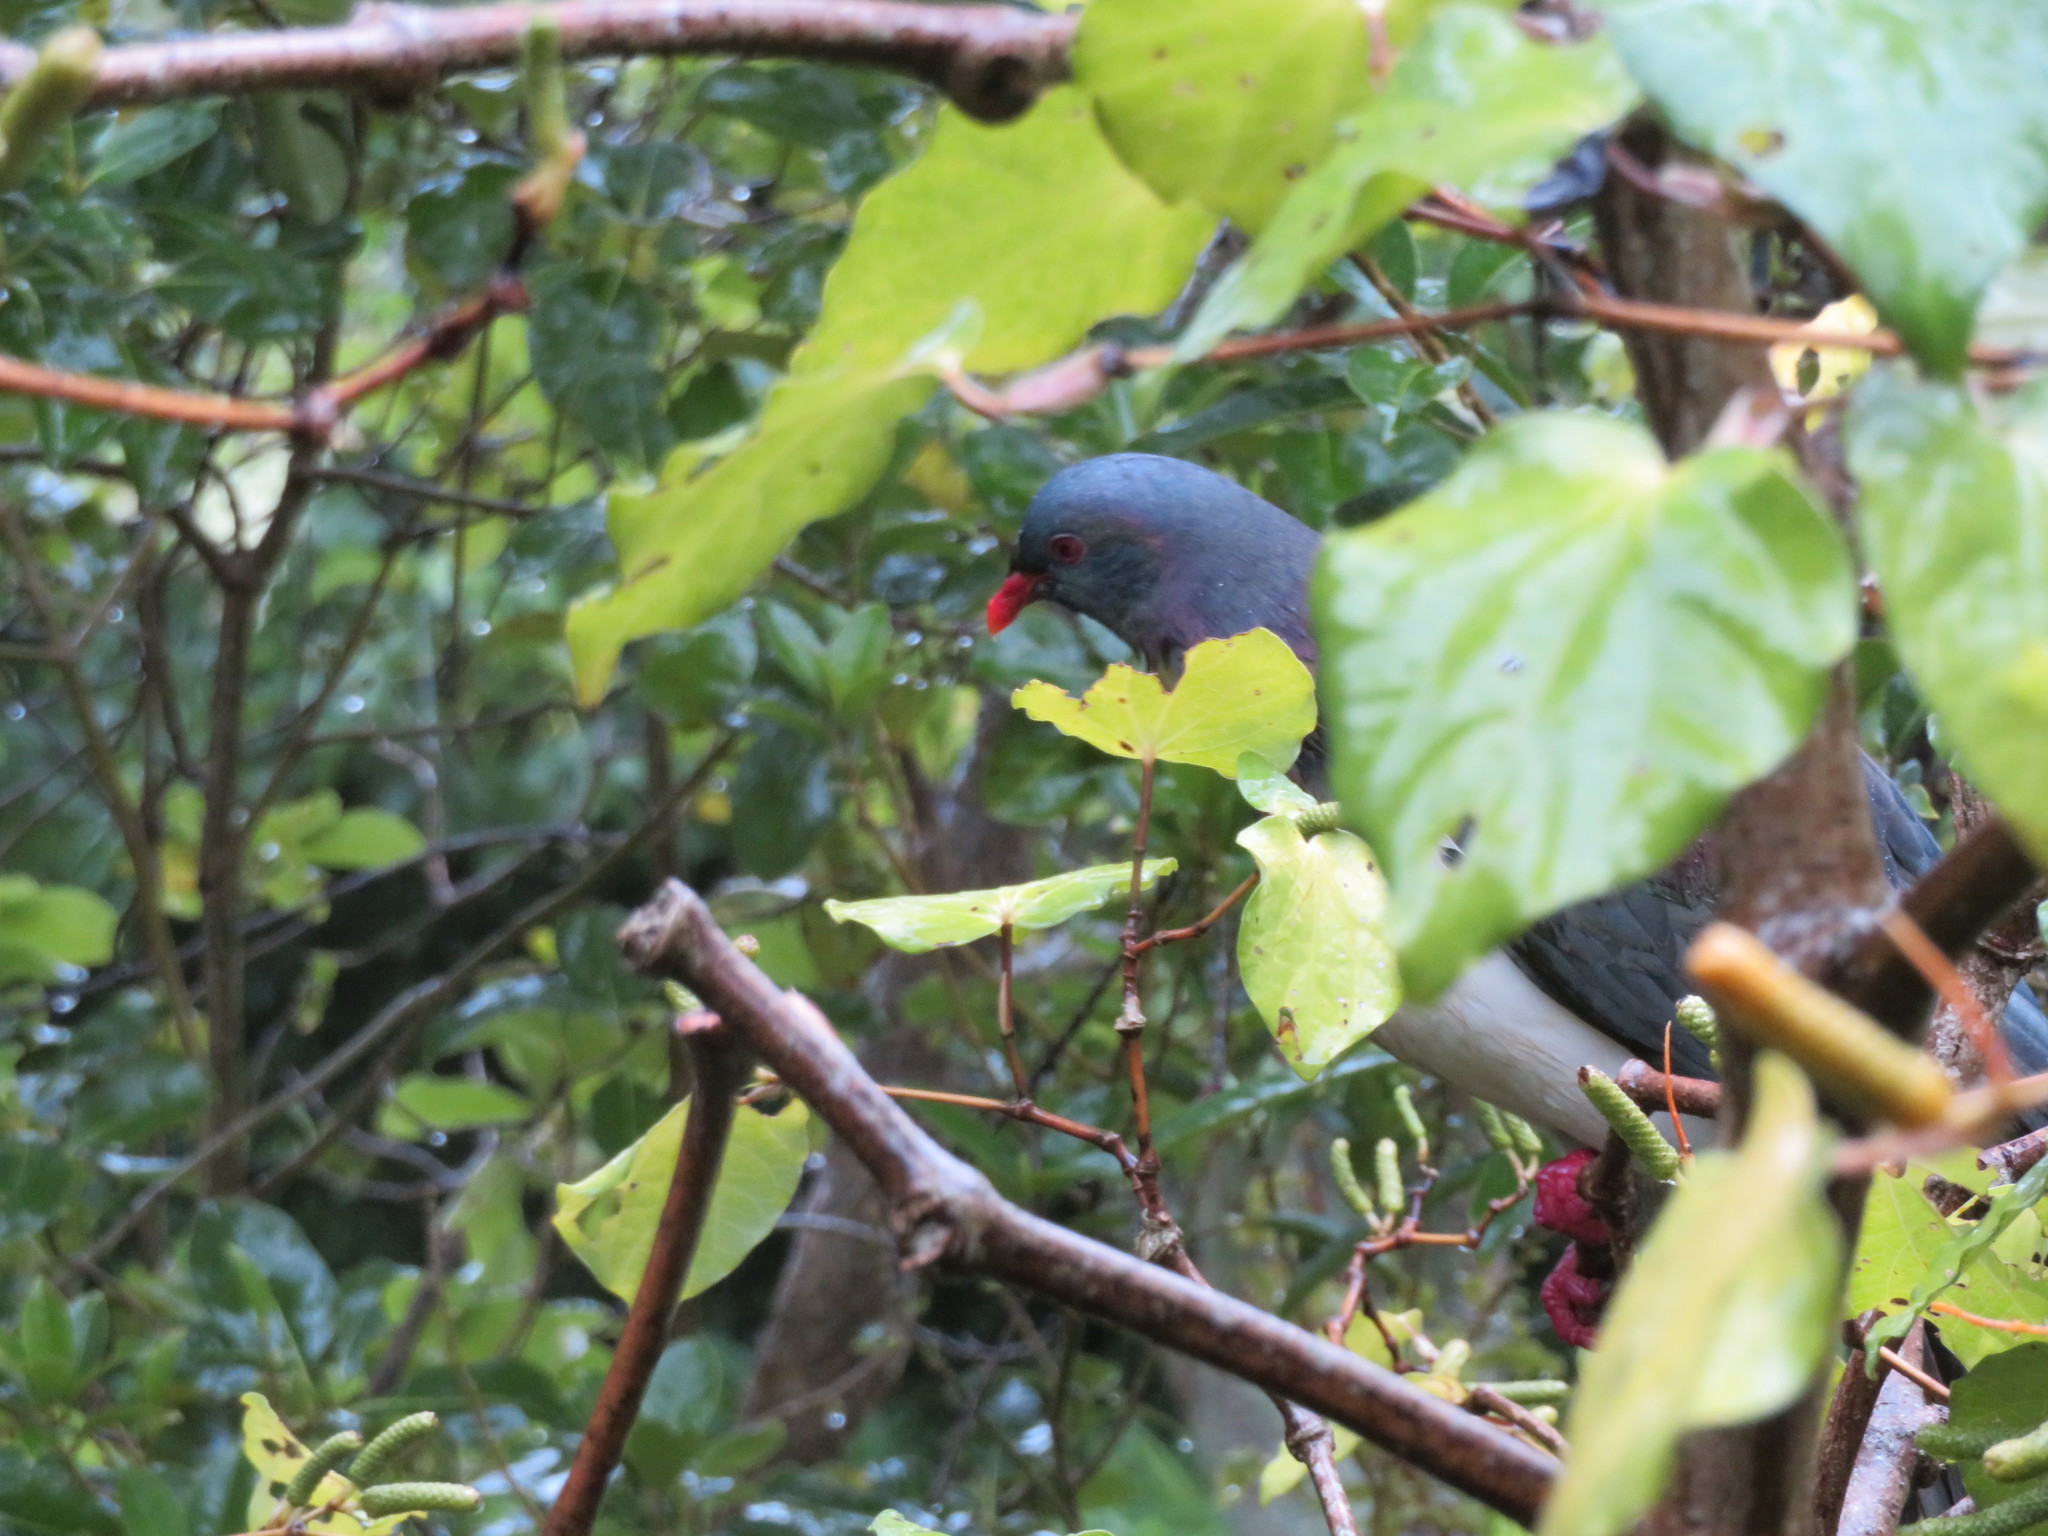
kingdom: Animalia
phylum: Chordata
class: Aves
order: Columbiformes
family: Columbidae
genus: Hemiphaga
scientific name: Hemiphaga novaeseelandiae
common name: New zealand pigeon
